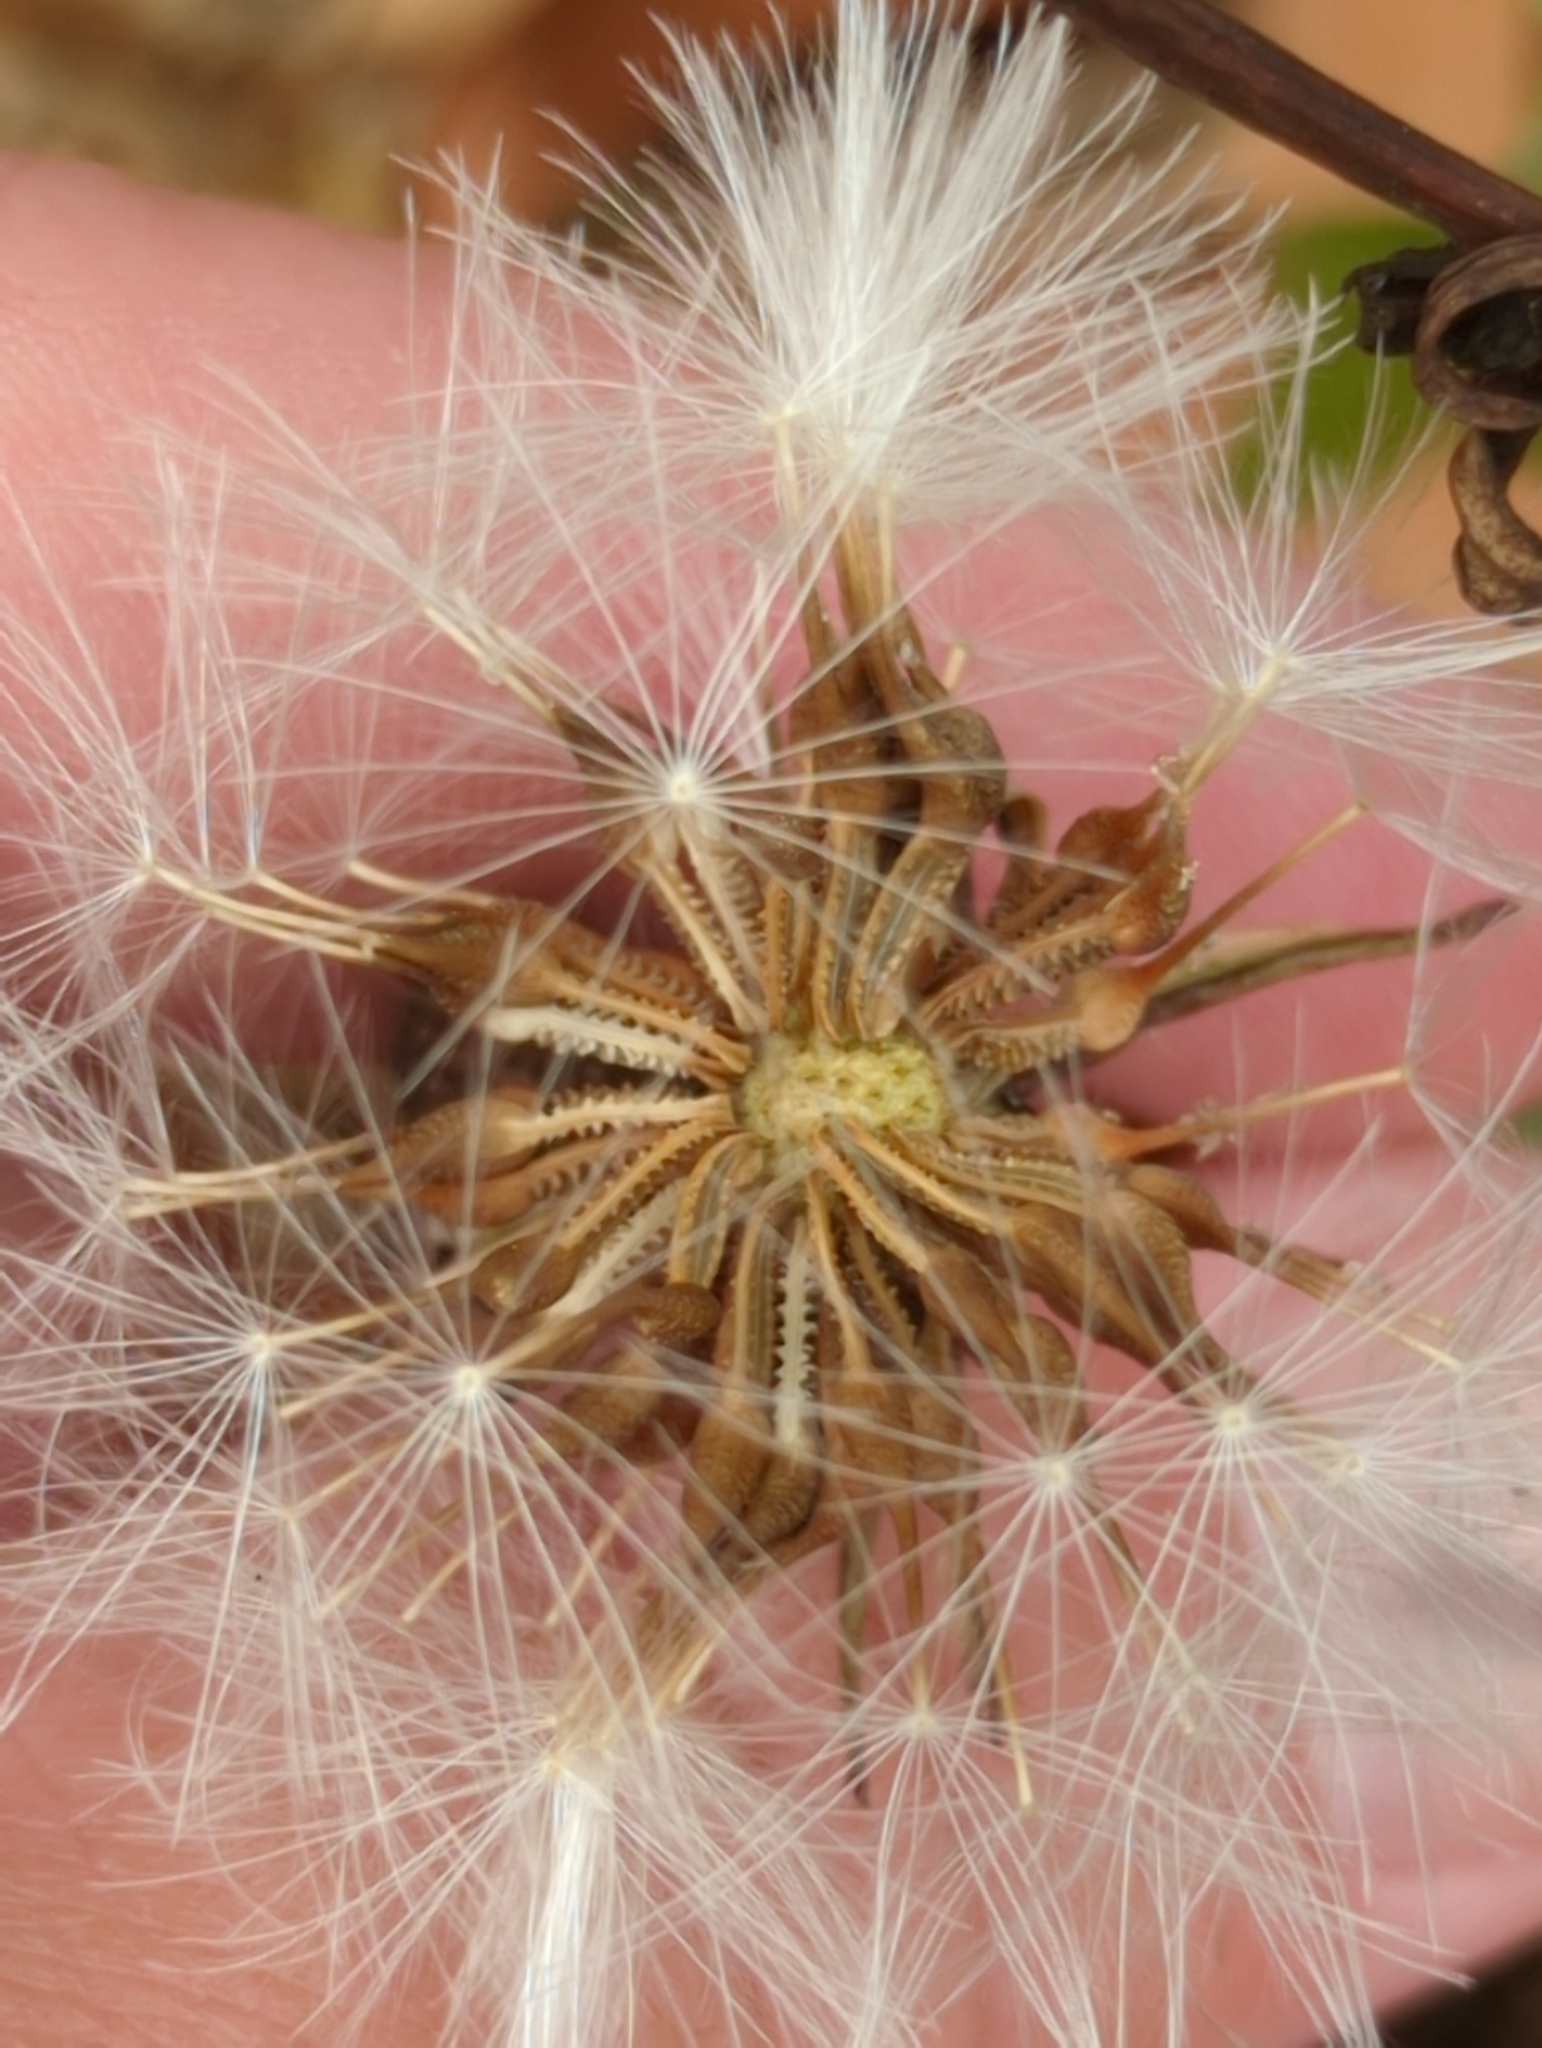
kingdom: Plantae
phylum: Tracheophyta
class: Magnoliopsida
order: Asterales
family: Asteraceae
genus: Urospermum
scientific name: Urospermum picroides
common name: False hawkbit
